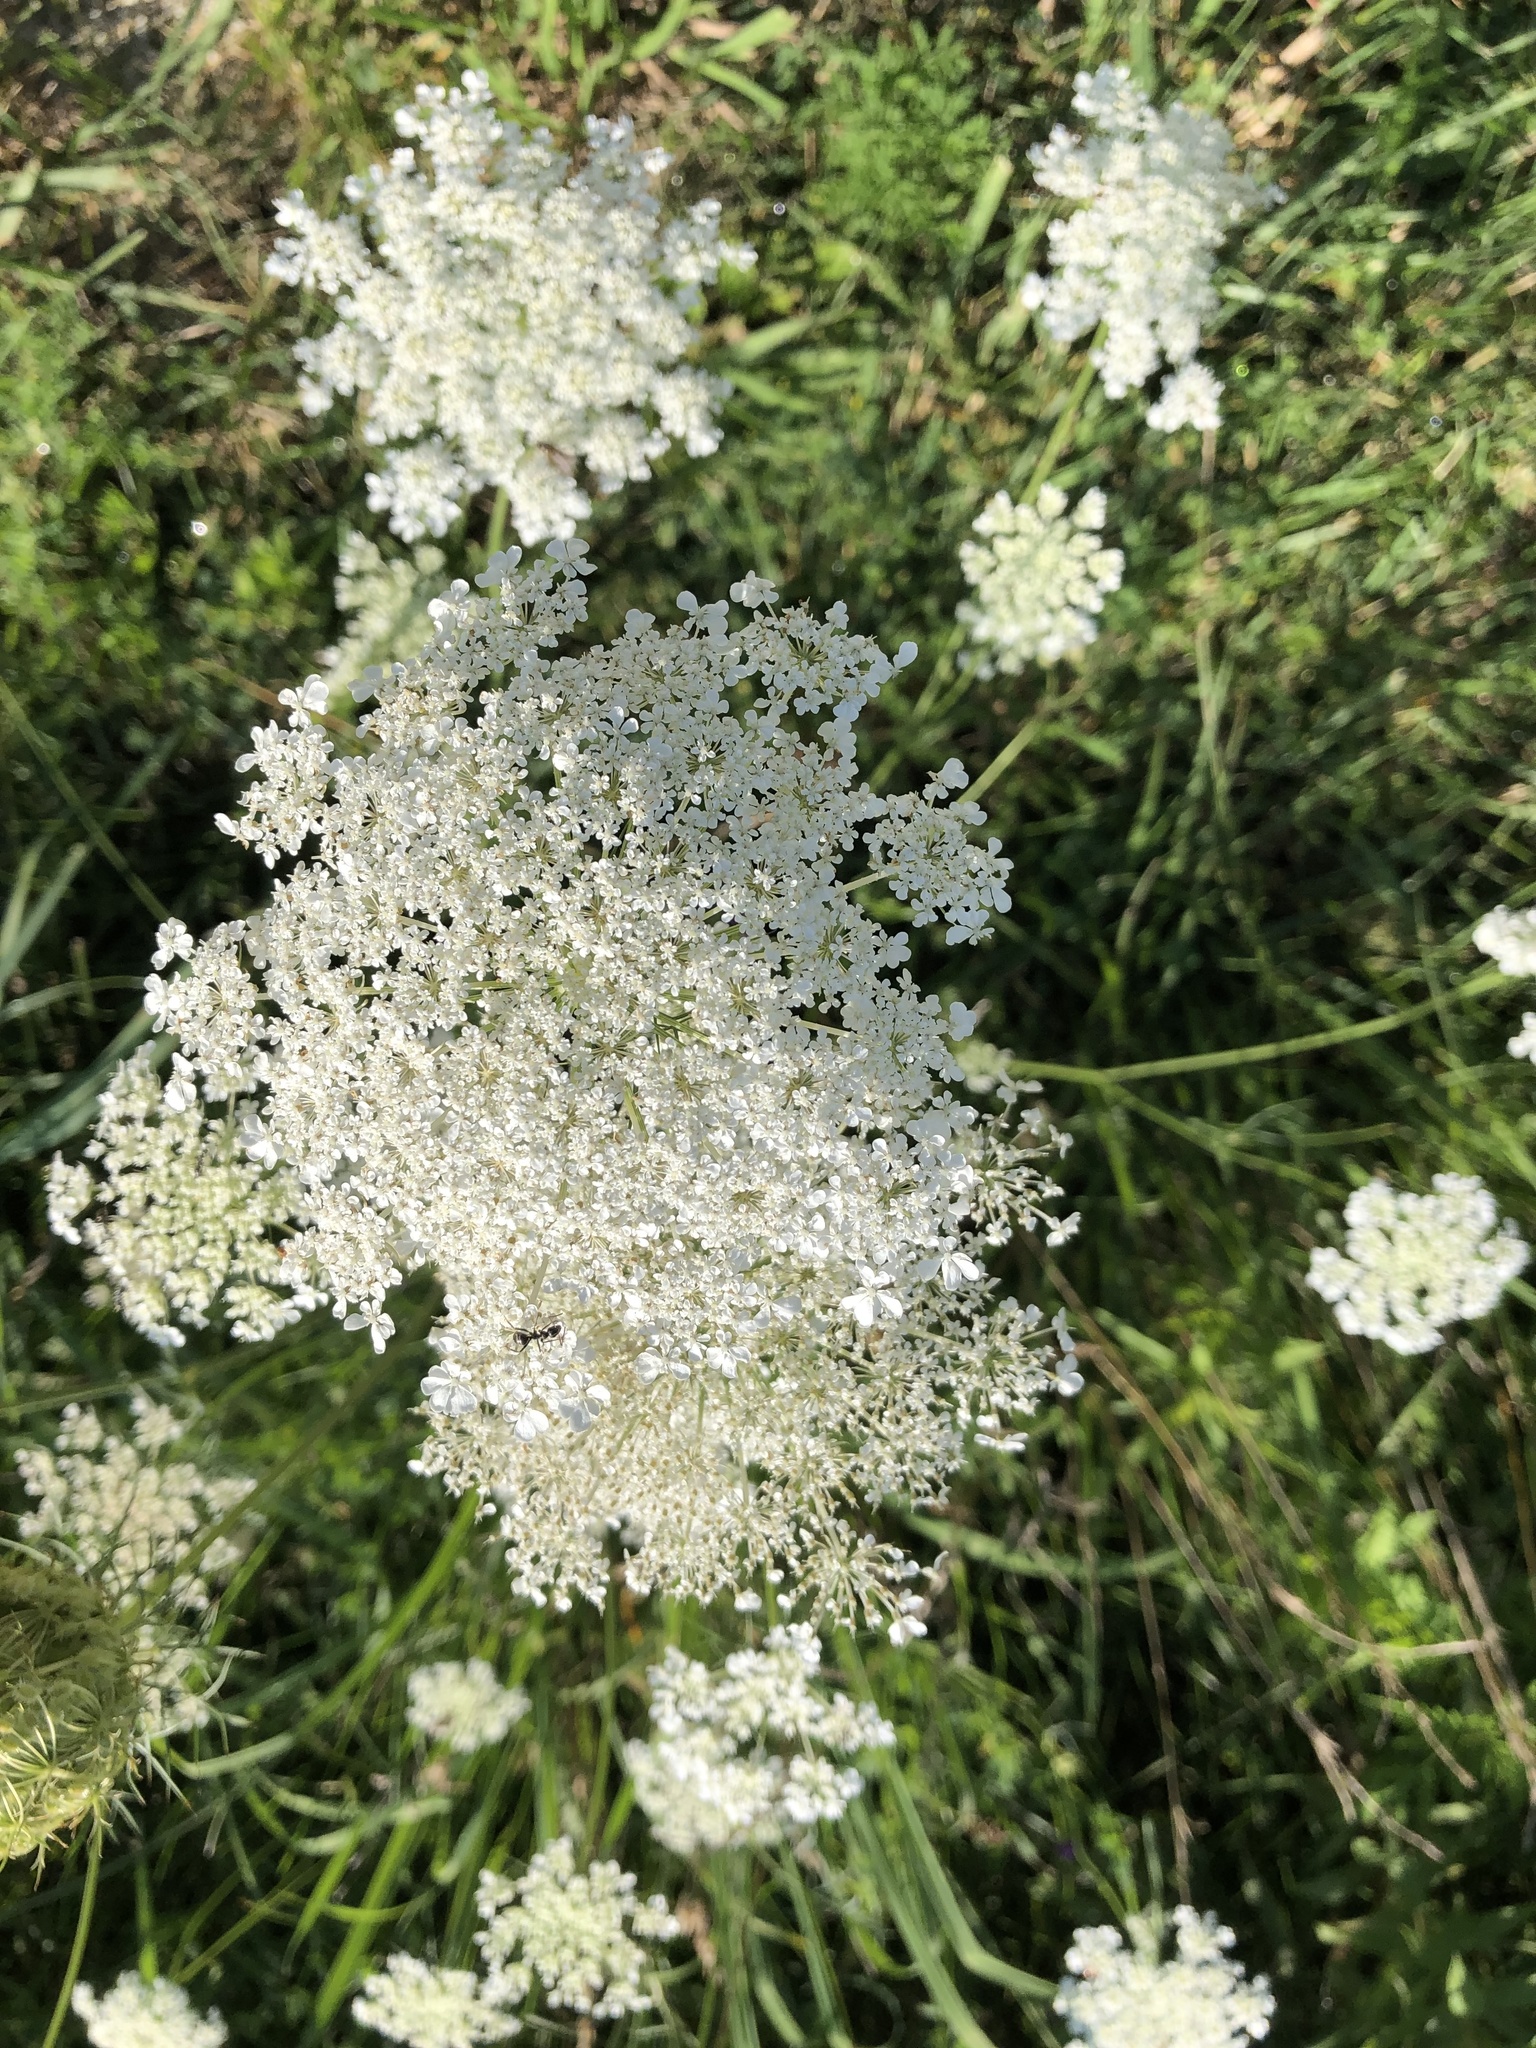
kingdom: Plantae
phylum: Tracheophyta
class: Magnoliopsida
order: Apiales
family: Apiaceae
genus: Daucus
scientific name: Daucus carota
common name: Wild carrot
